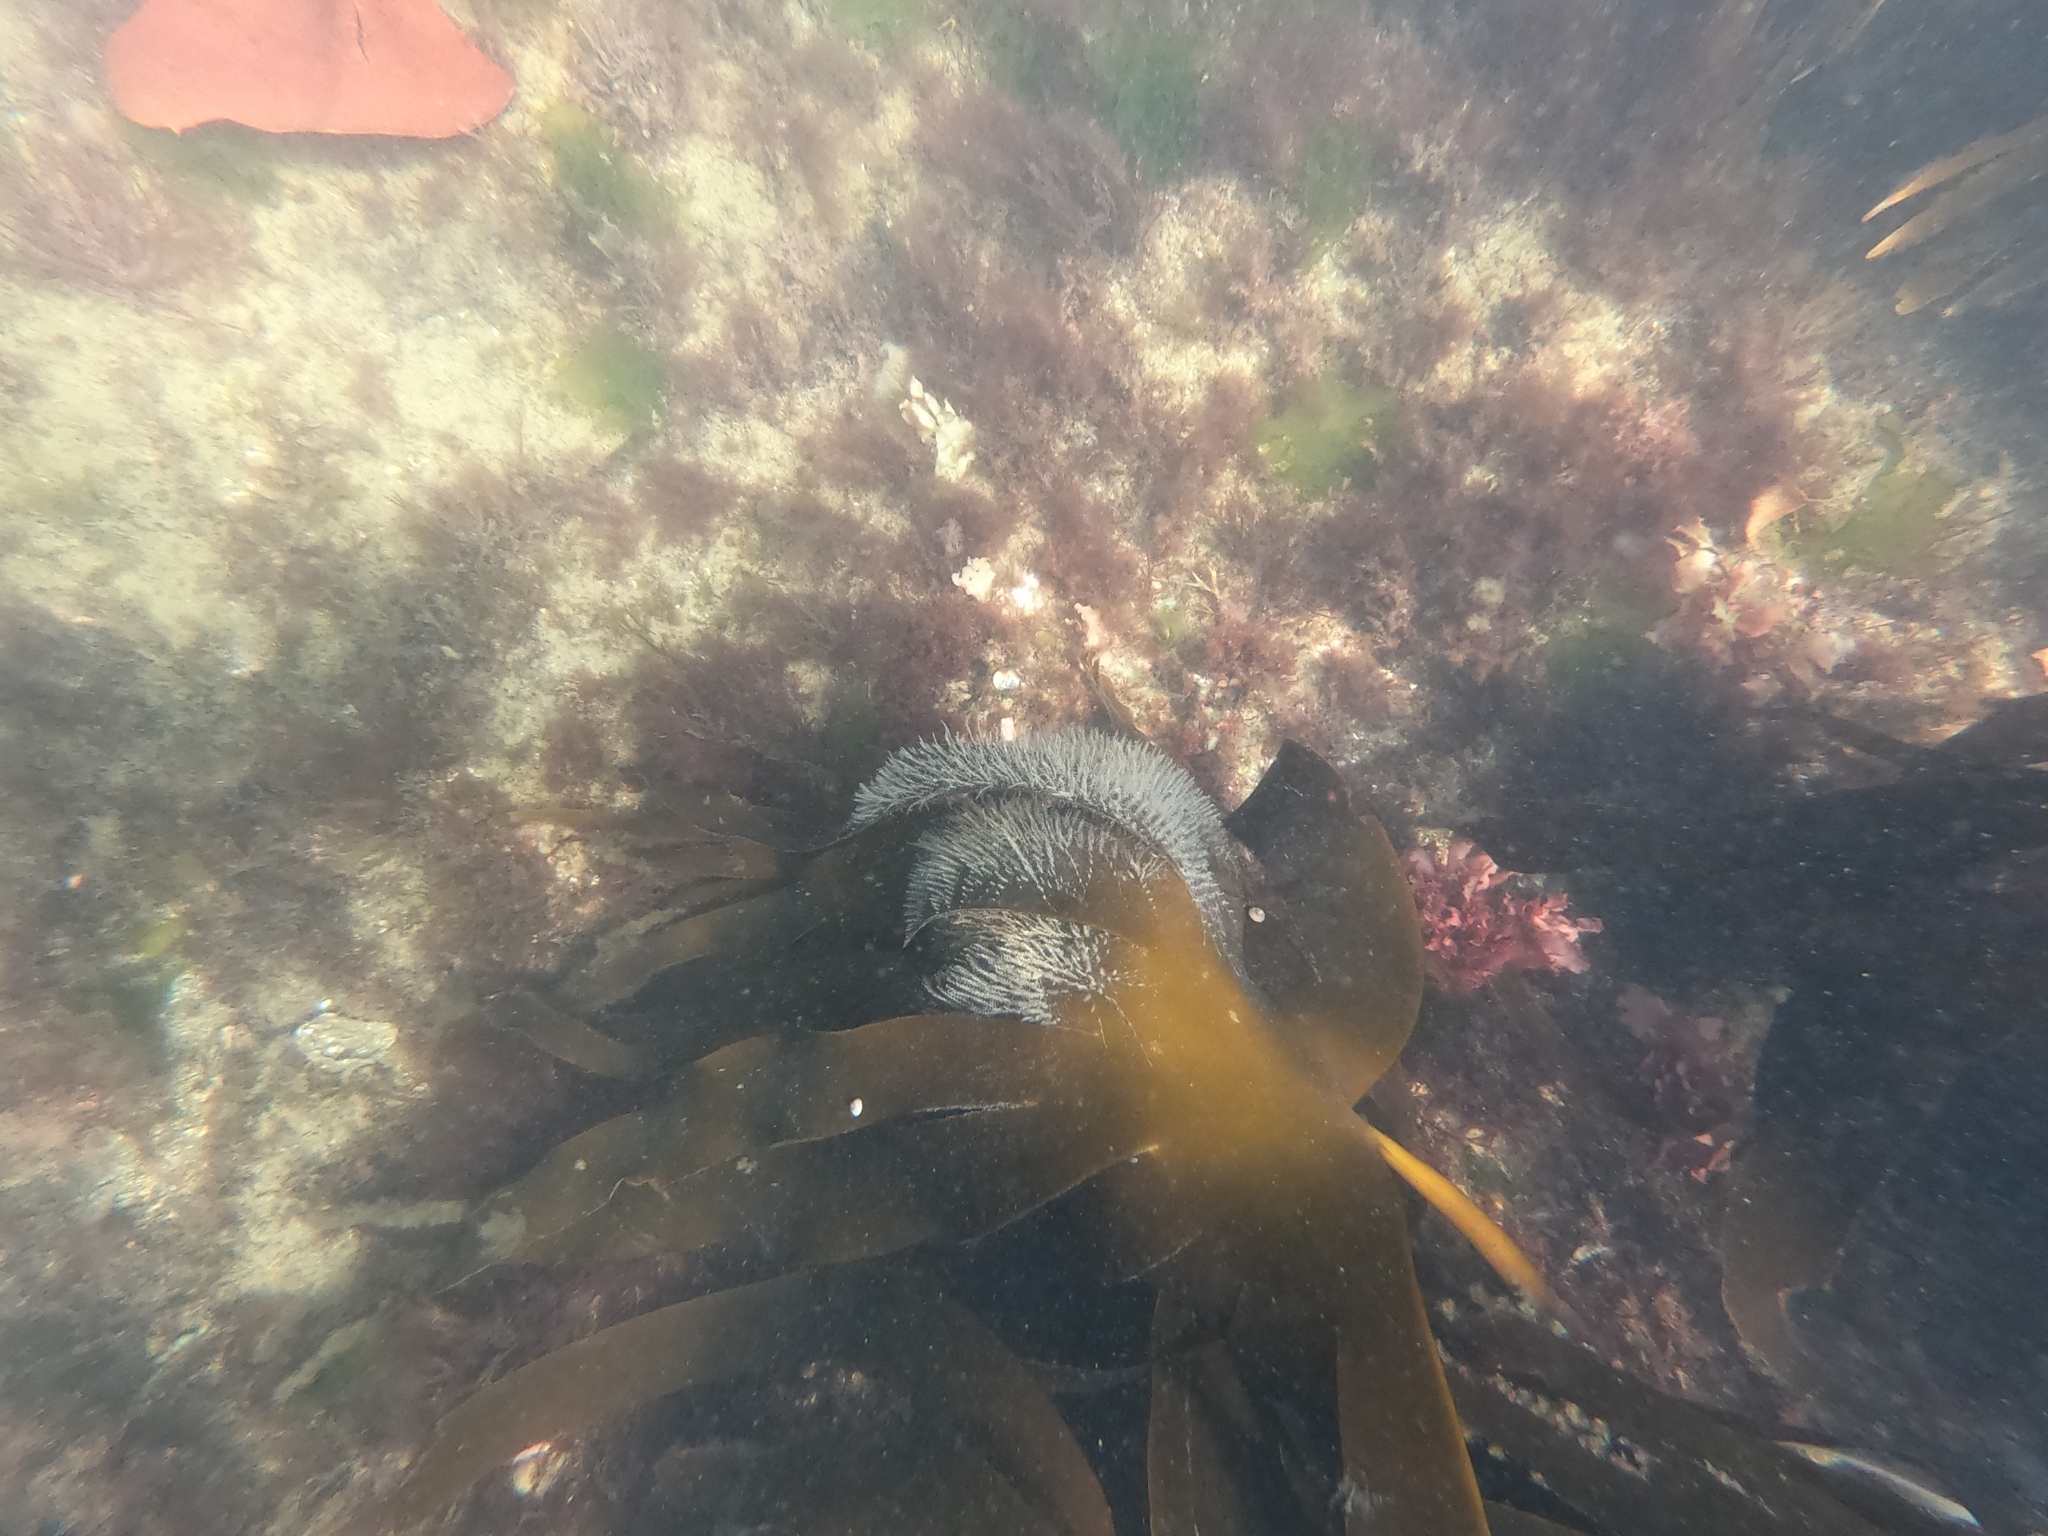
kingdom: Animalia
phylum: Cnidaria
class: Hydrozoa
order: Leptothecata
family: Campanulariidae
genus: Obelia
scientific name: Obelia geniculata
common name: Bell hydroid
